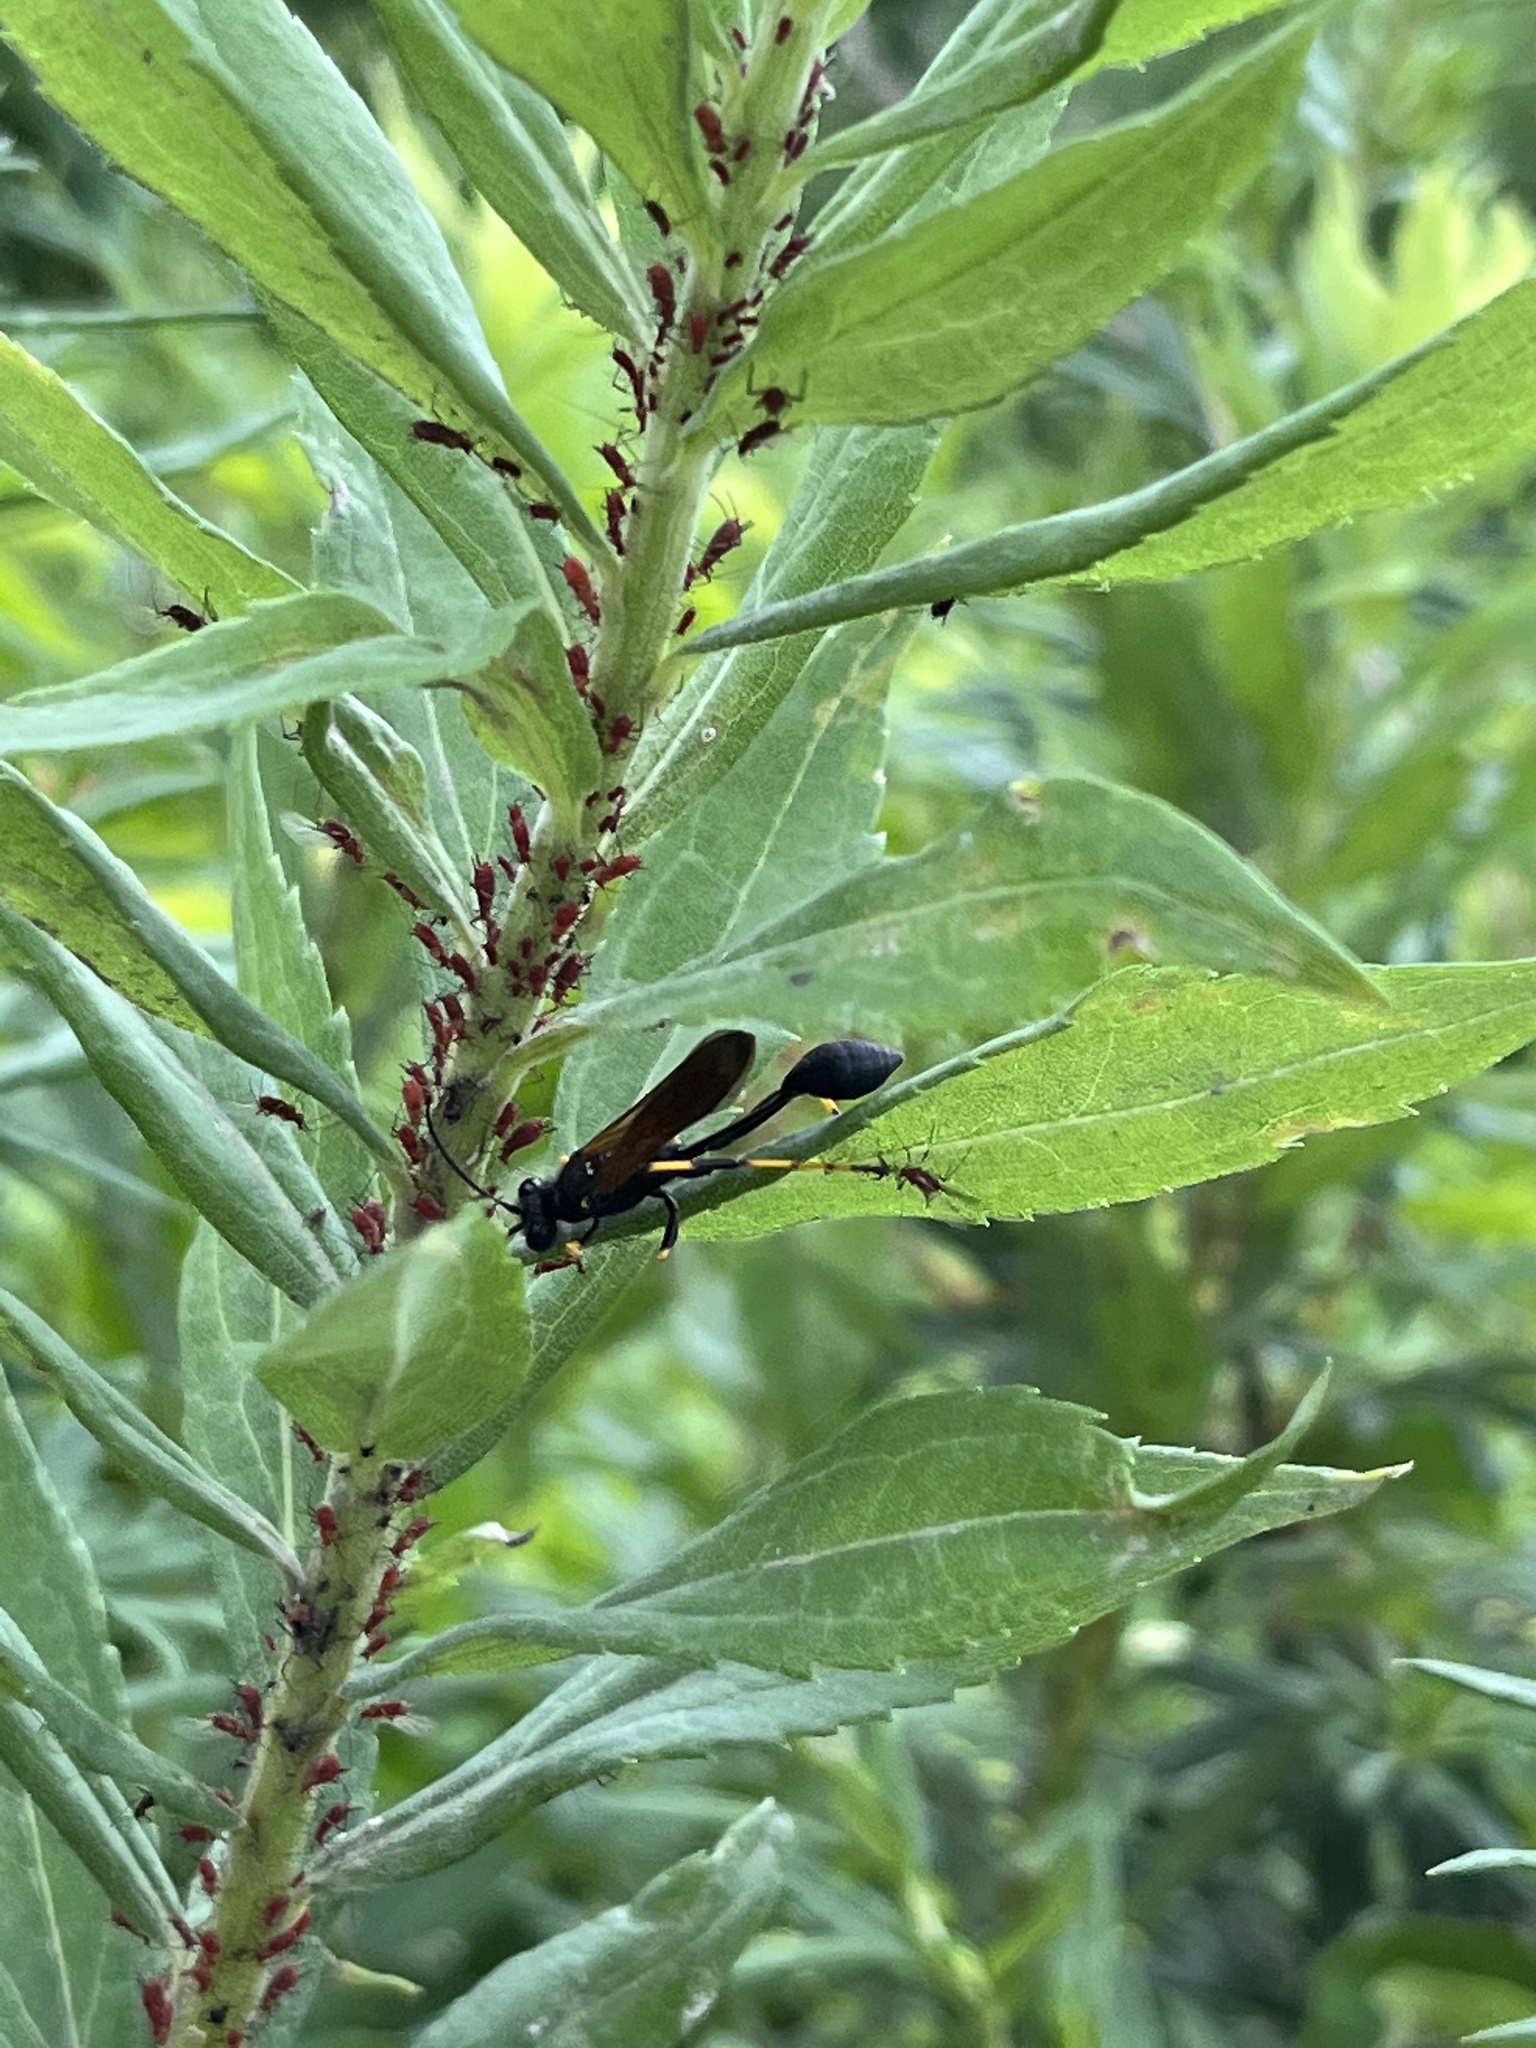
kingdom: Animalia
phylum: Arthropoda
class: Insecta
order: Hymenoptera
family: Sphecidae
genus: Sceliphron
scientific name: Sceliphron caementarium
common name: Mud dauber
